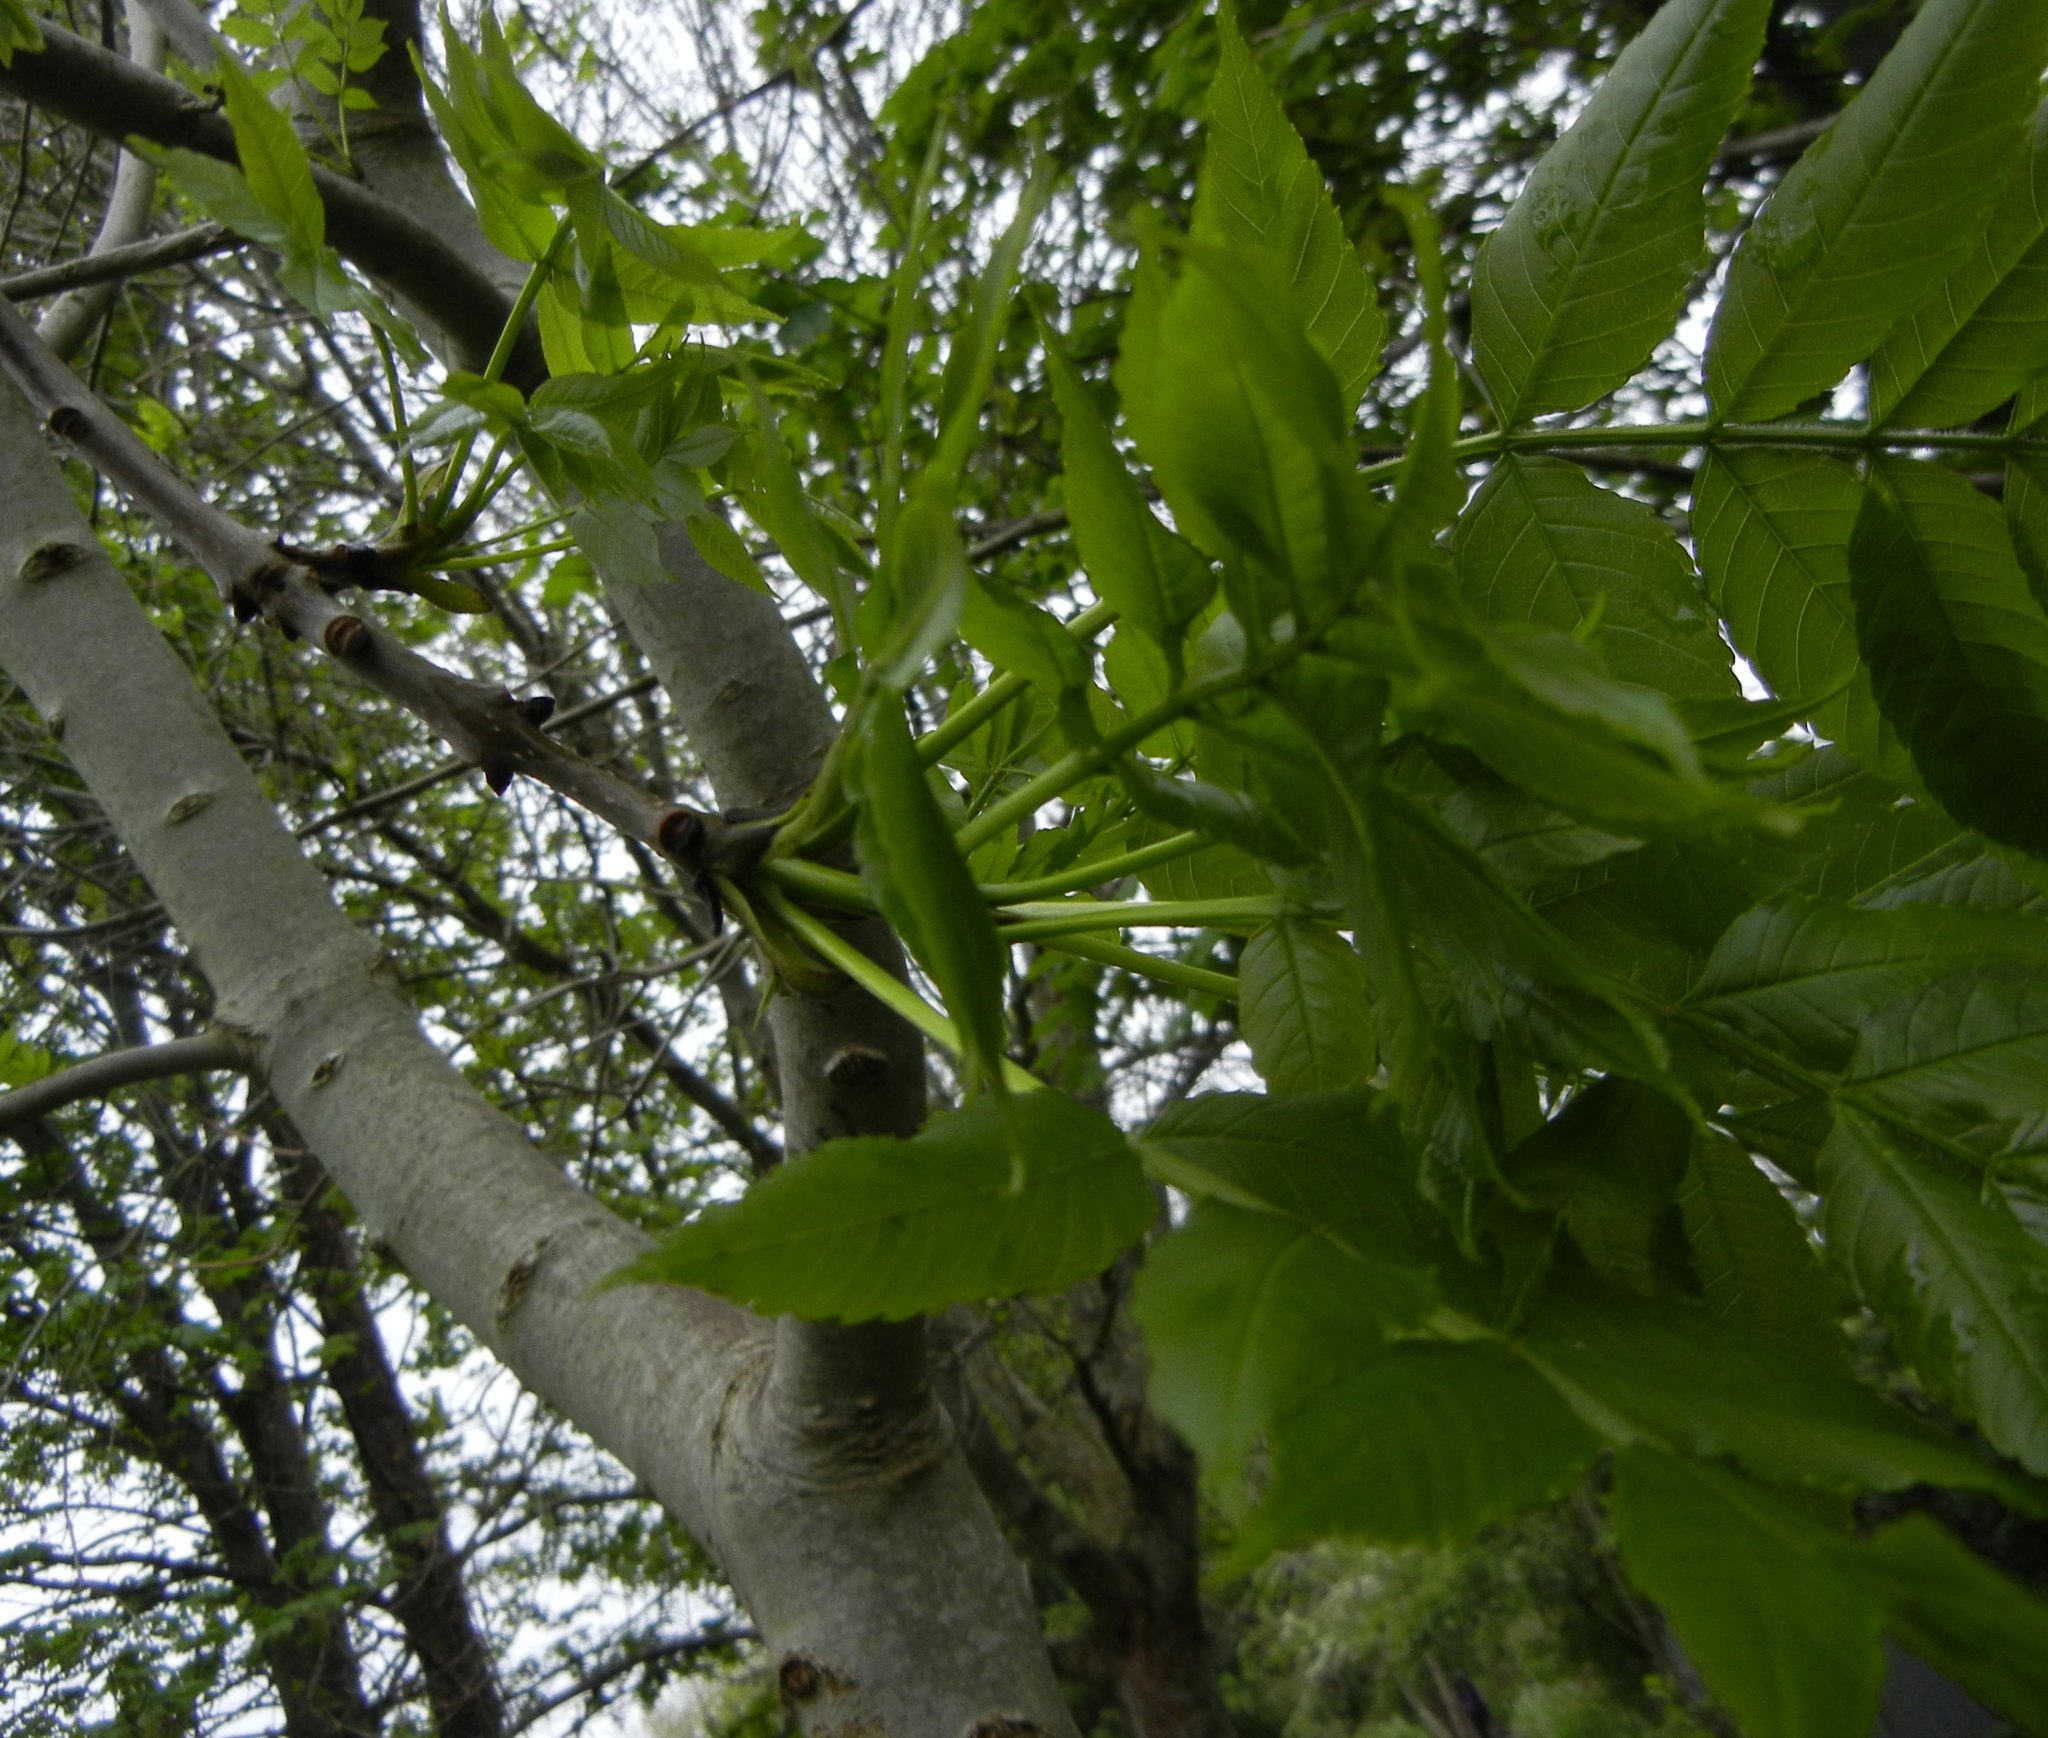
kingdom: Plantae
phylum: Tracheophyta
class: Magnoliopsida
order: Lamiales
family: Oleaceae
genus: Fraxinus
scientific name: Fraxinus excelsior
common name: European ash
